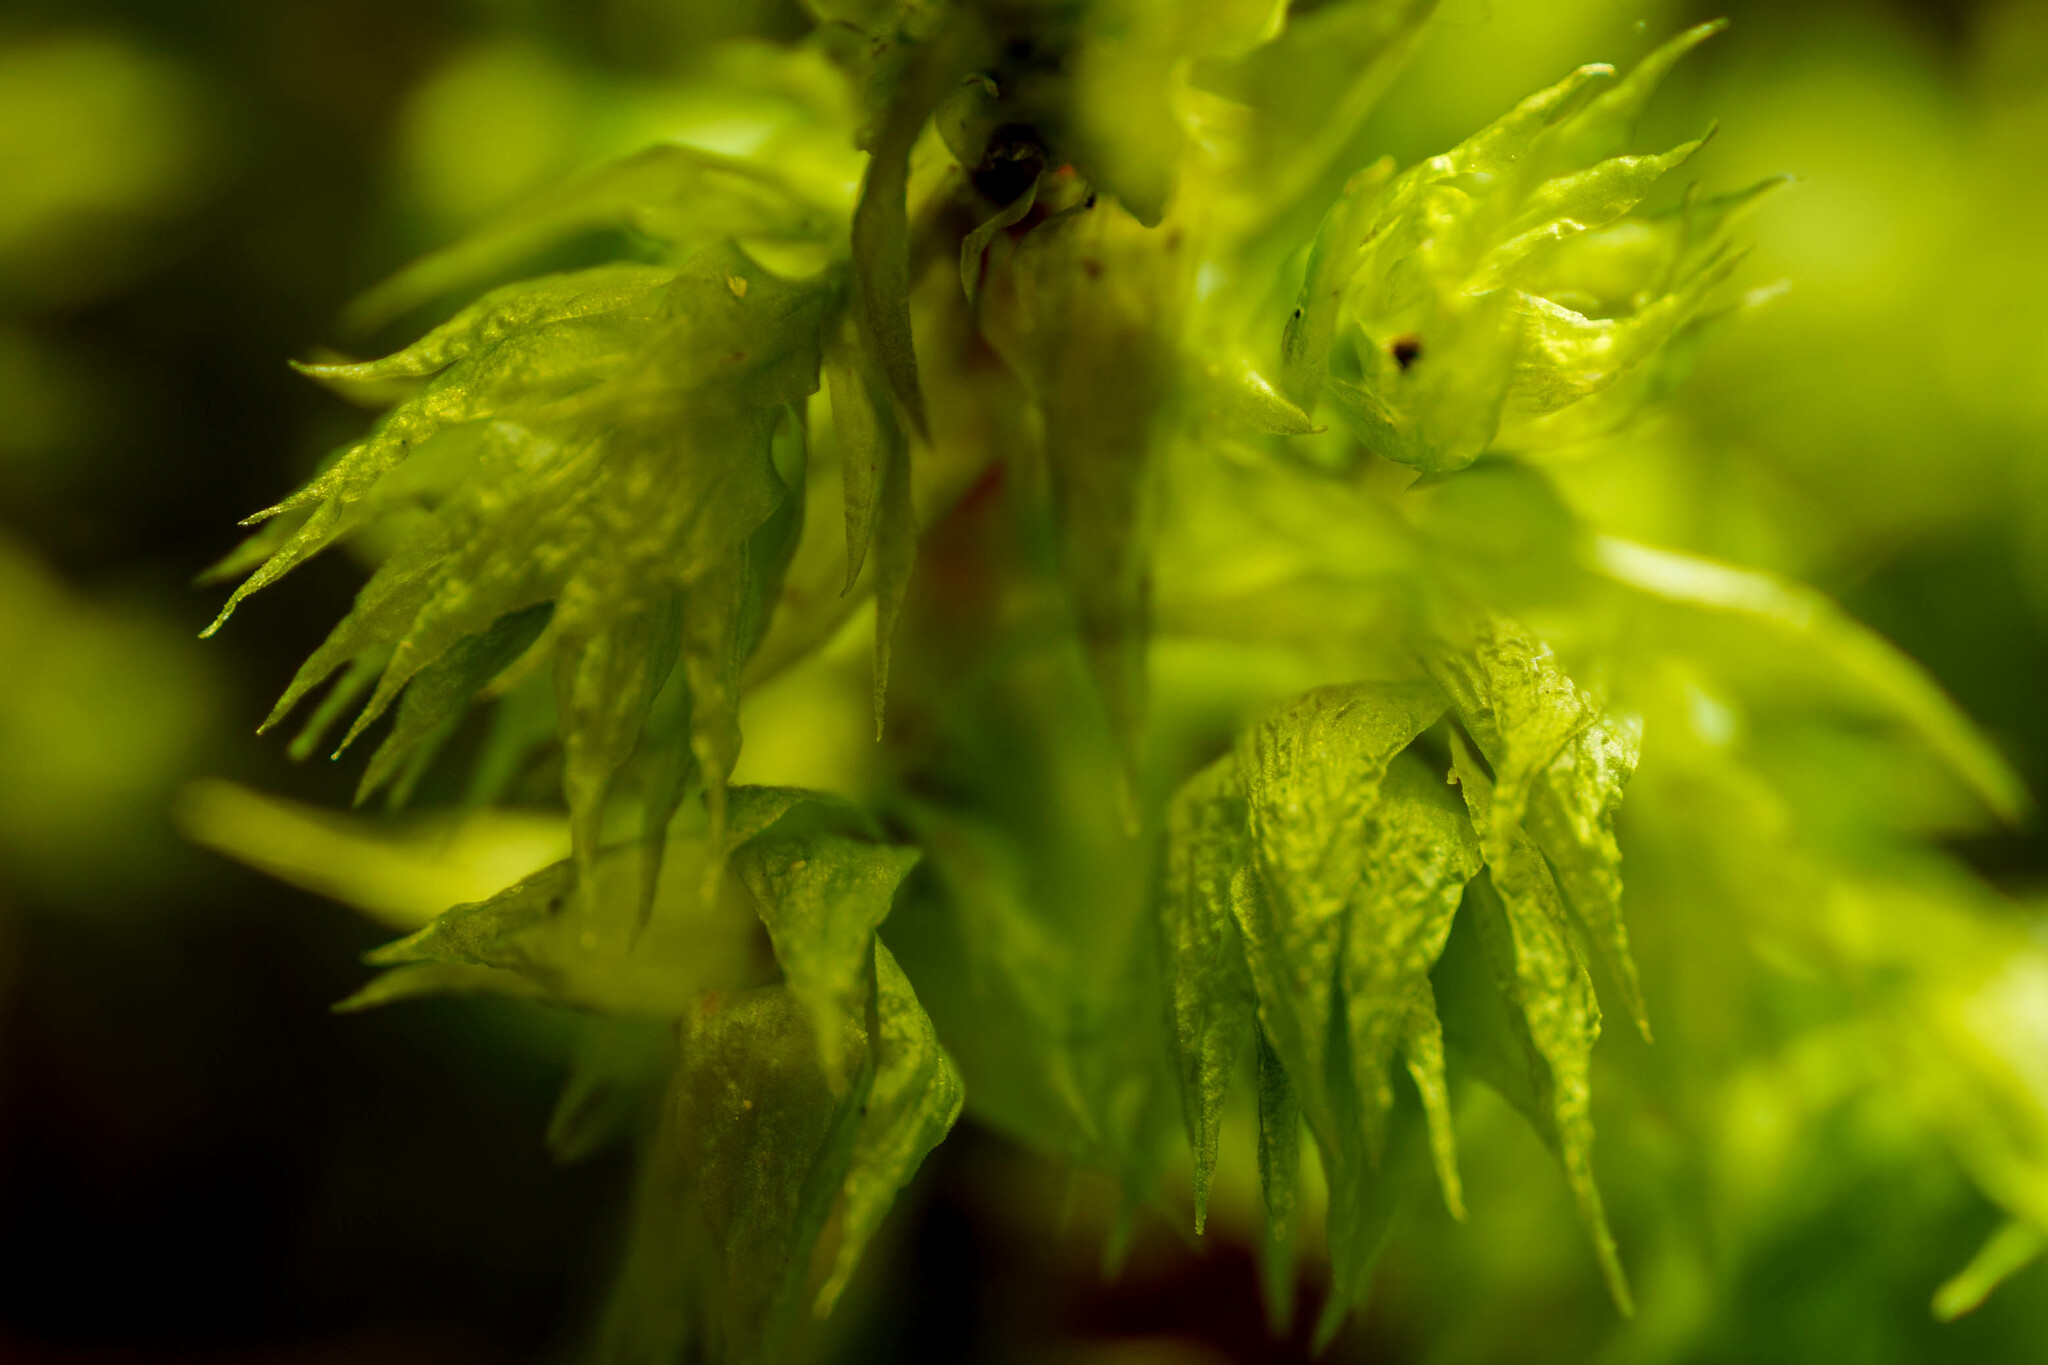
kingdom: Plantae
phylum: Bryophyta
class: Bryopsida
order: Hypnales
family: Hylocomiaceae
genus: Hylocomiadelphus
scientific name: Hylocomiadelphus triquetrus
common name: Rough goose neck moss
